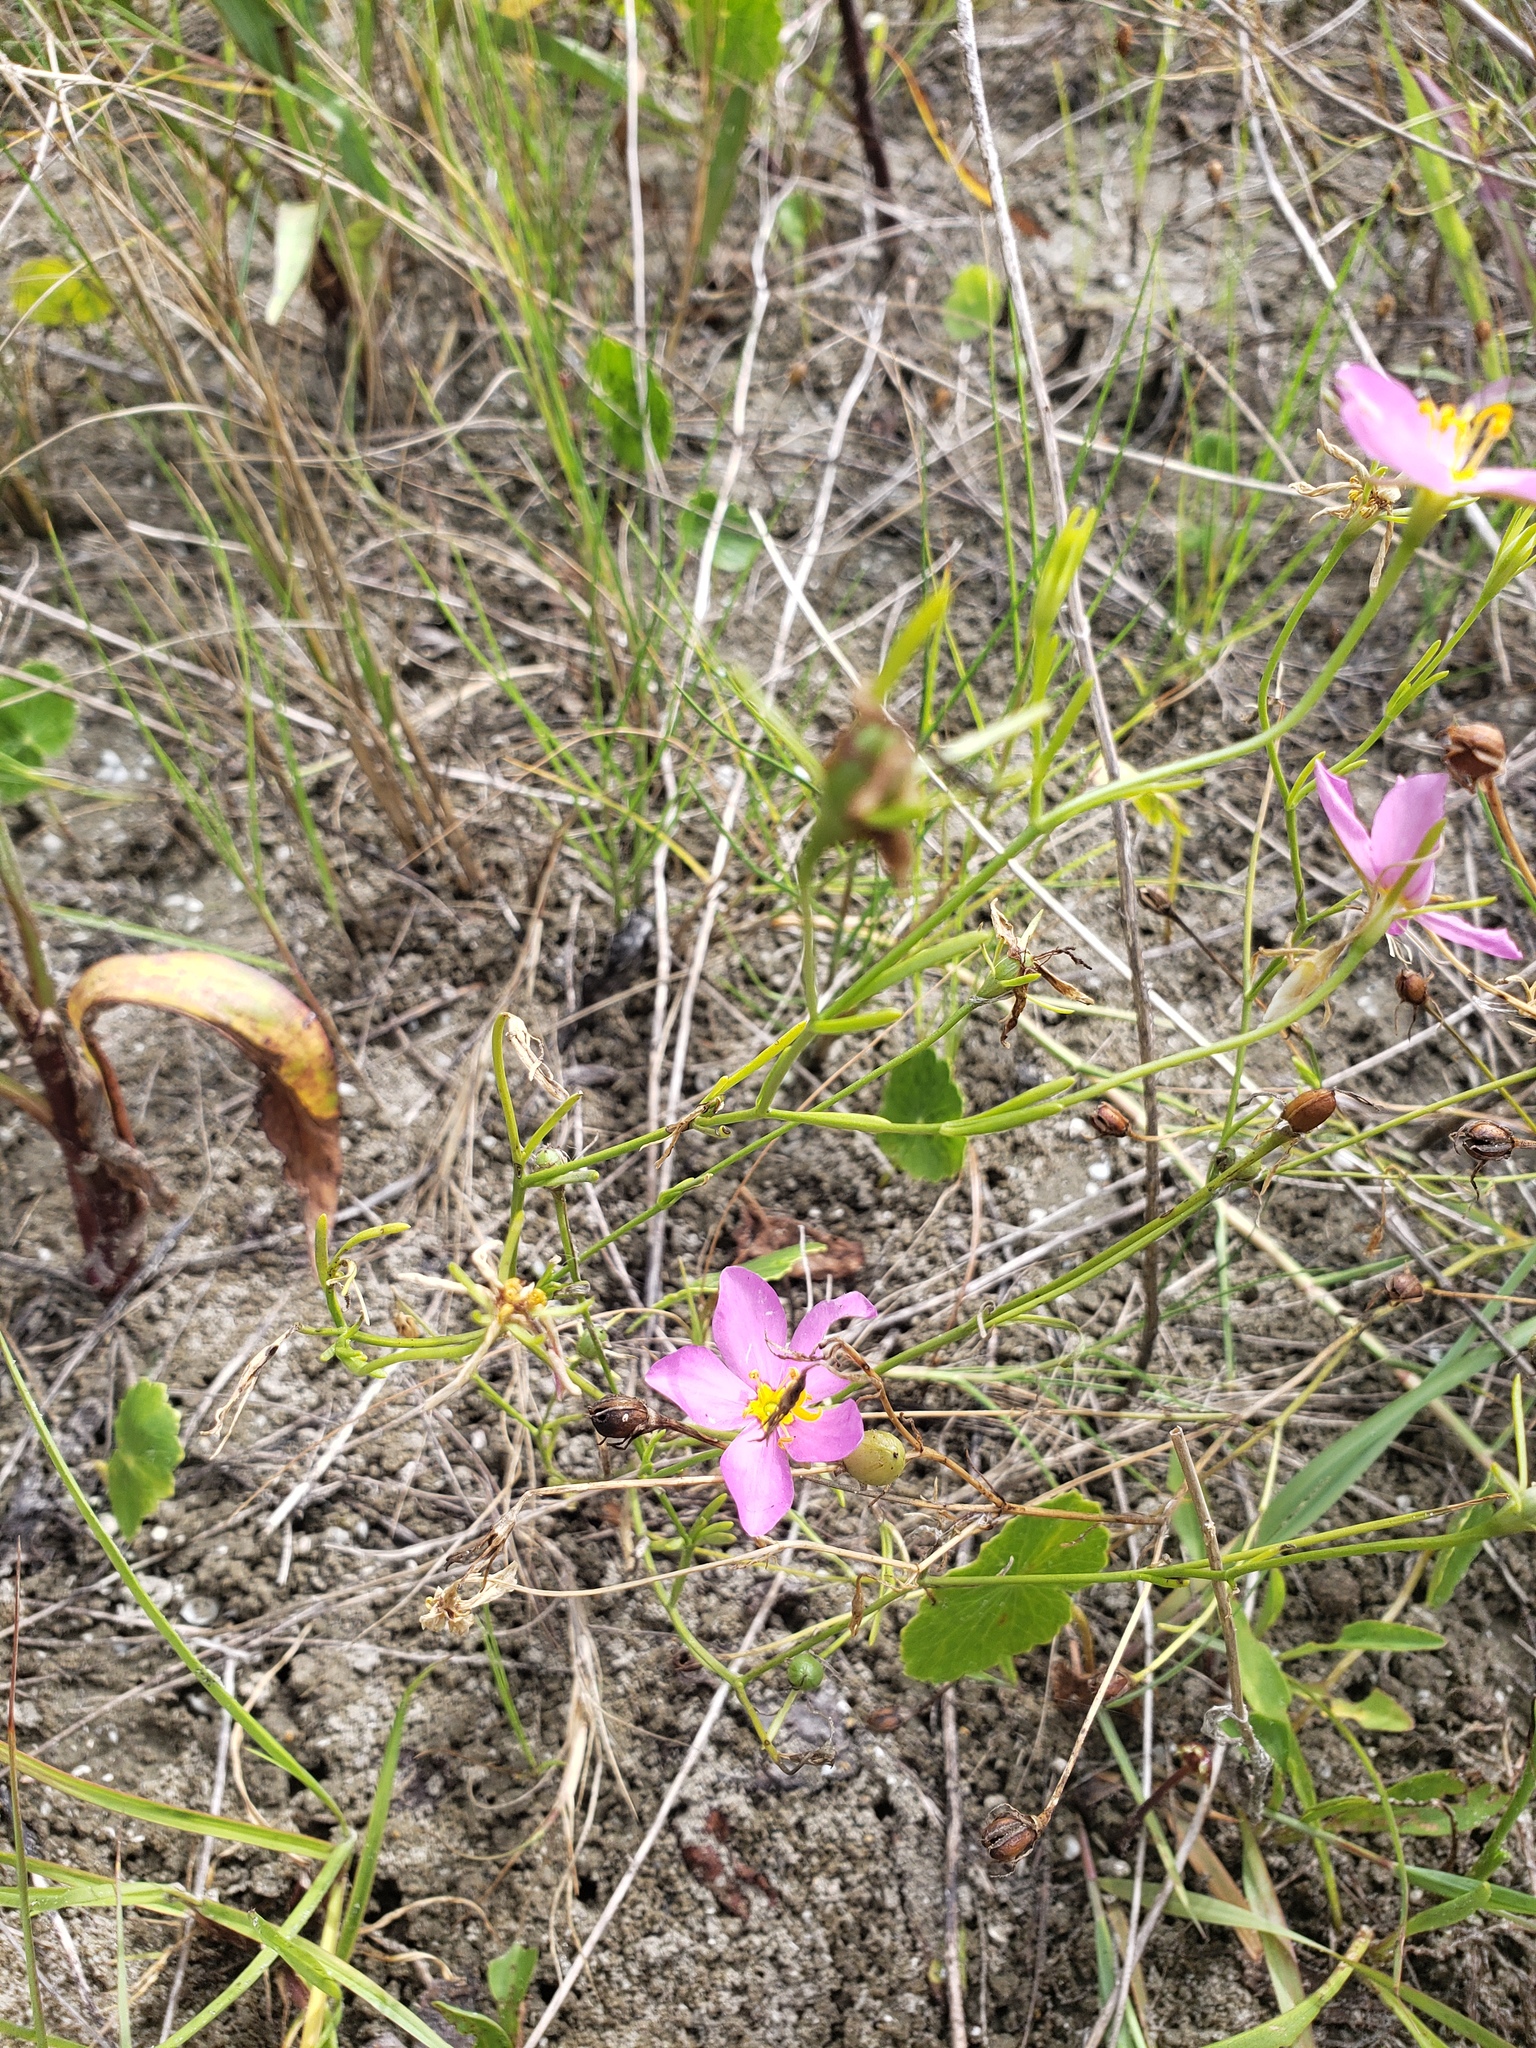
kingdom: Plantae
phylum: Tracheophyta
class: Magnoliopsida
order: Gentianales
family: Gentianaceae
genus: Sabatia
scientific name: Sabatia stellaris
